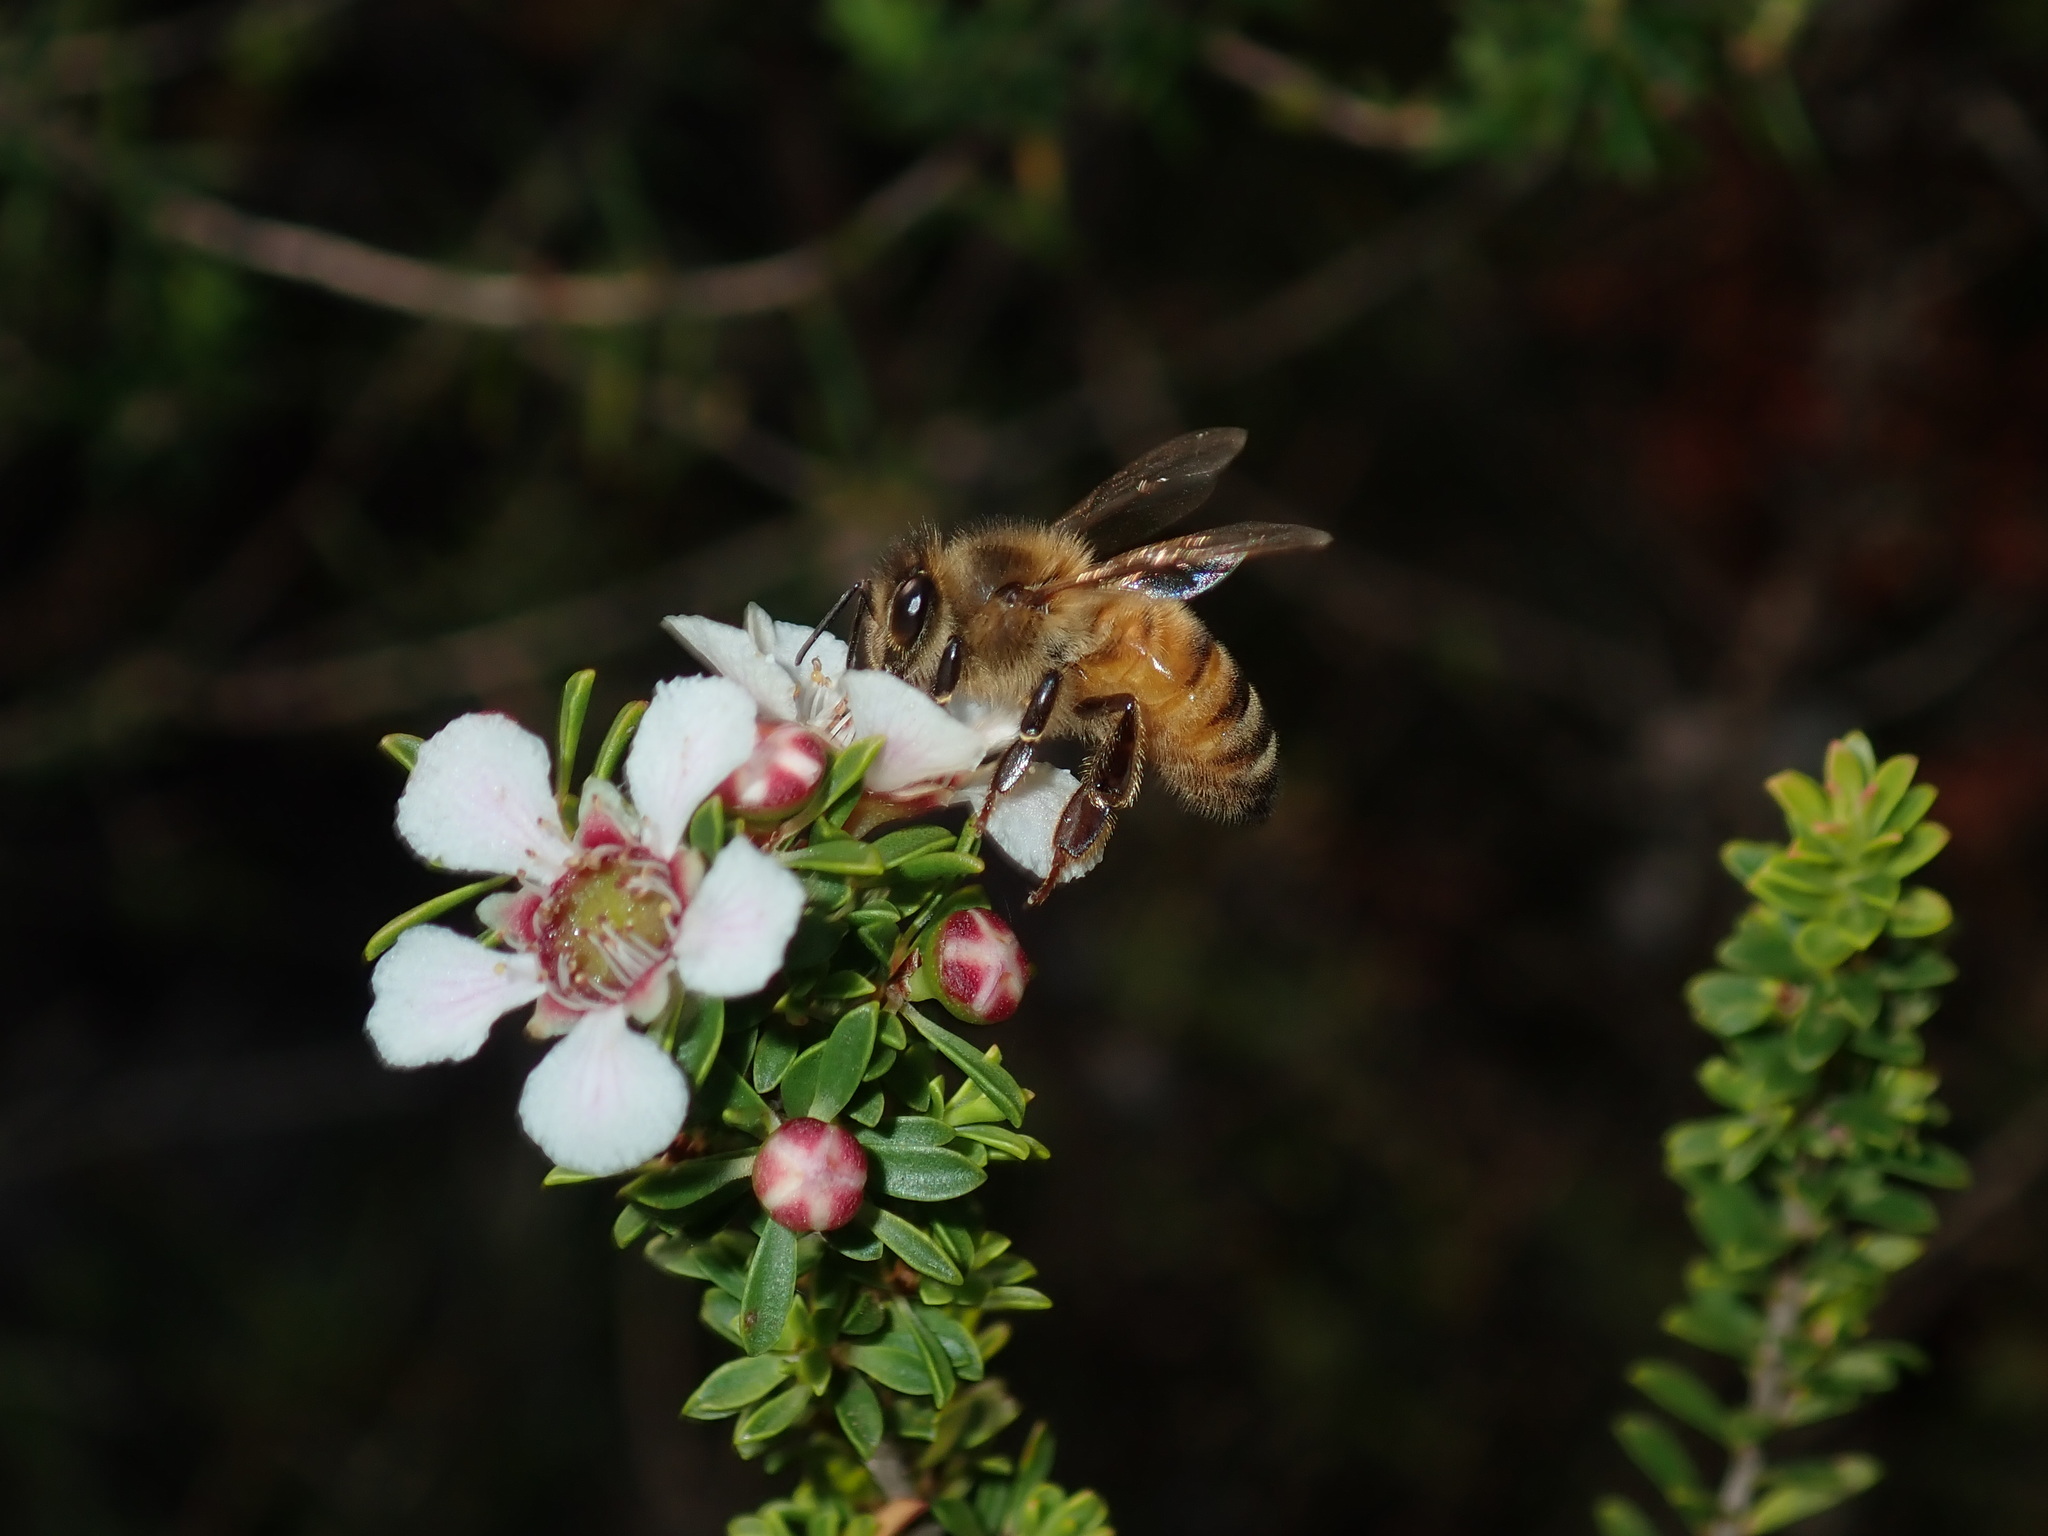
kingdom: Animalia
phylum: Arthropoda
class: Insecta
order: Hymenoptera
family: Apidae
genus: Apis
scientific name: Apis mellifera
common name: Honey bee
